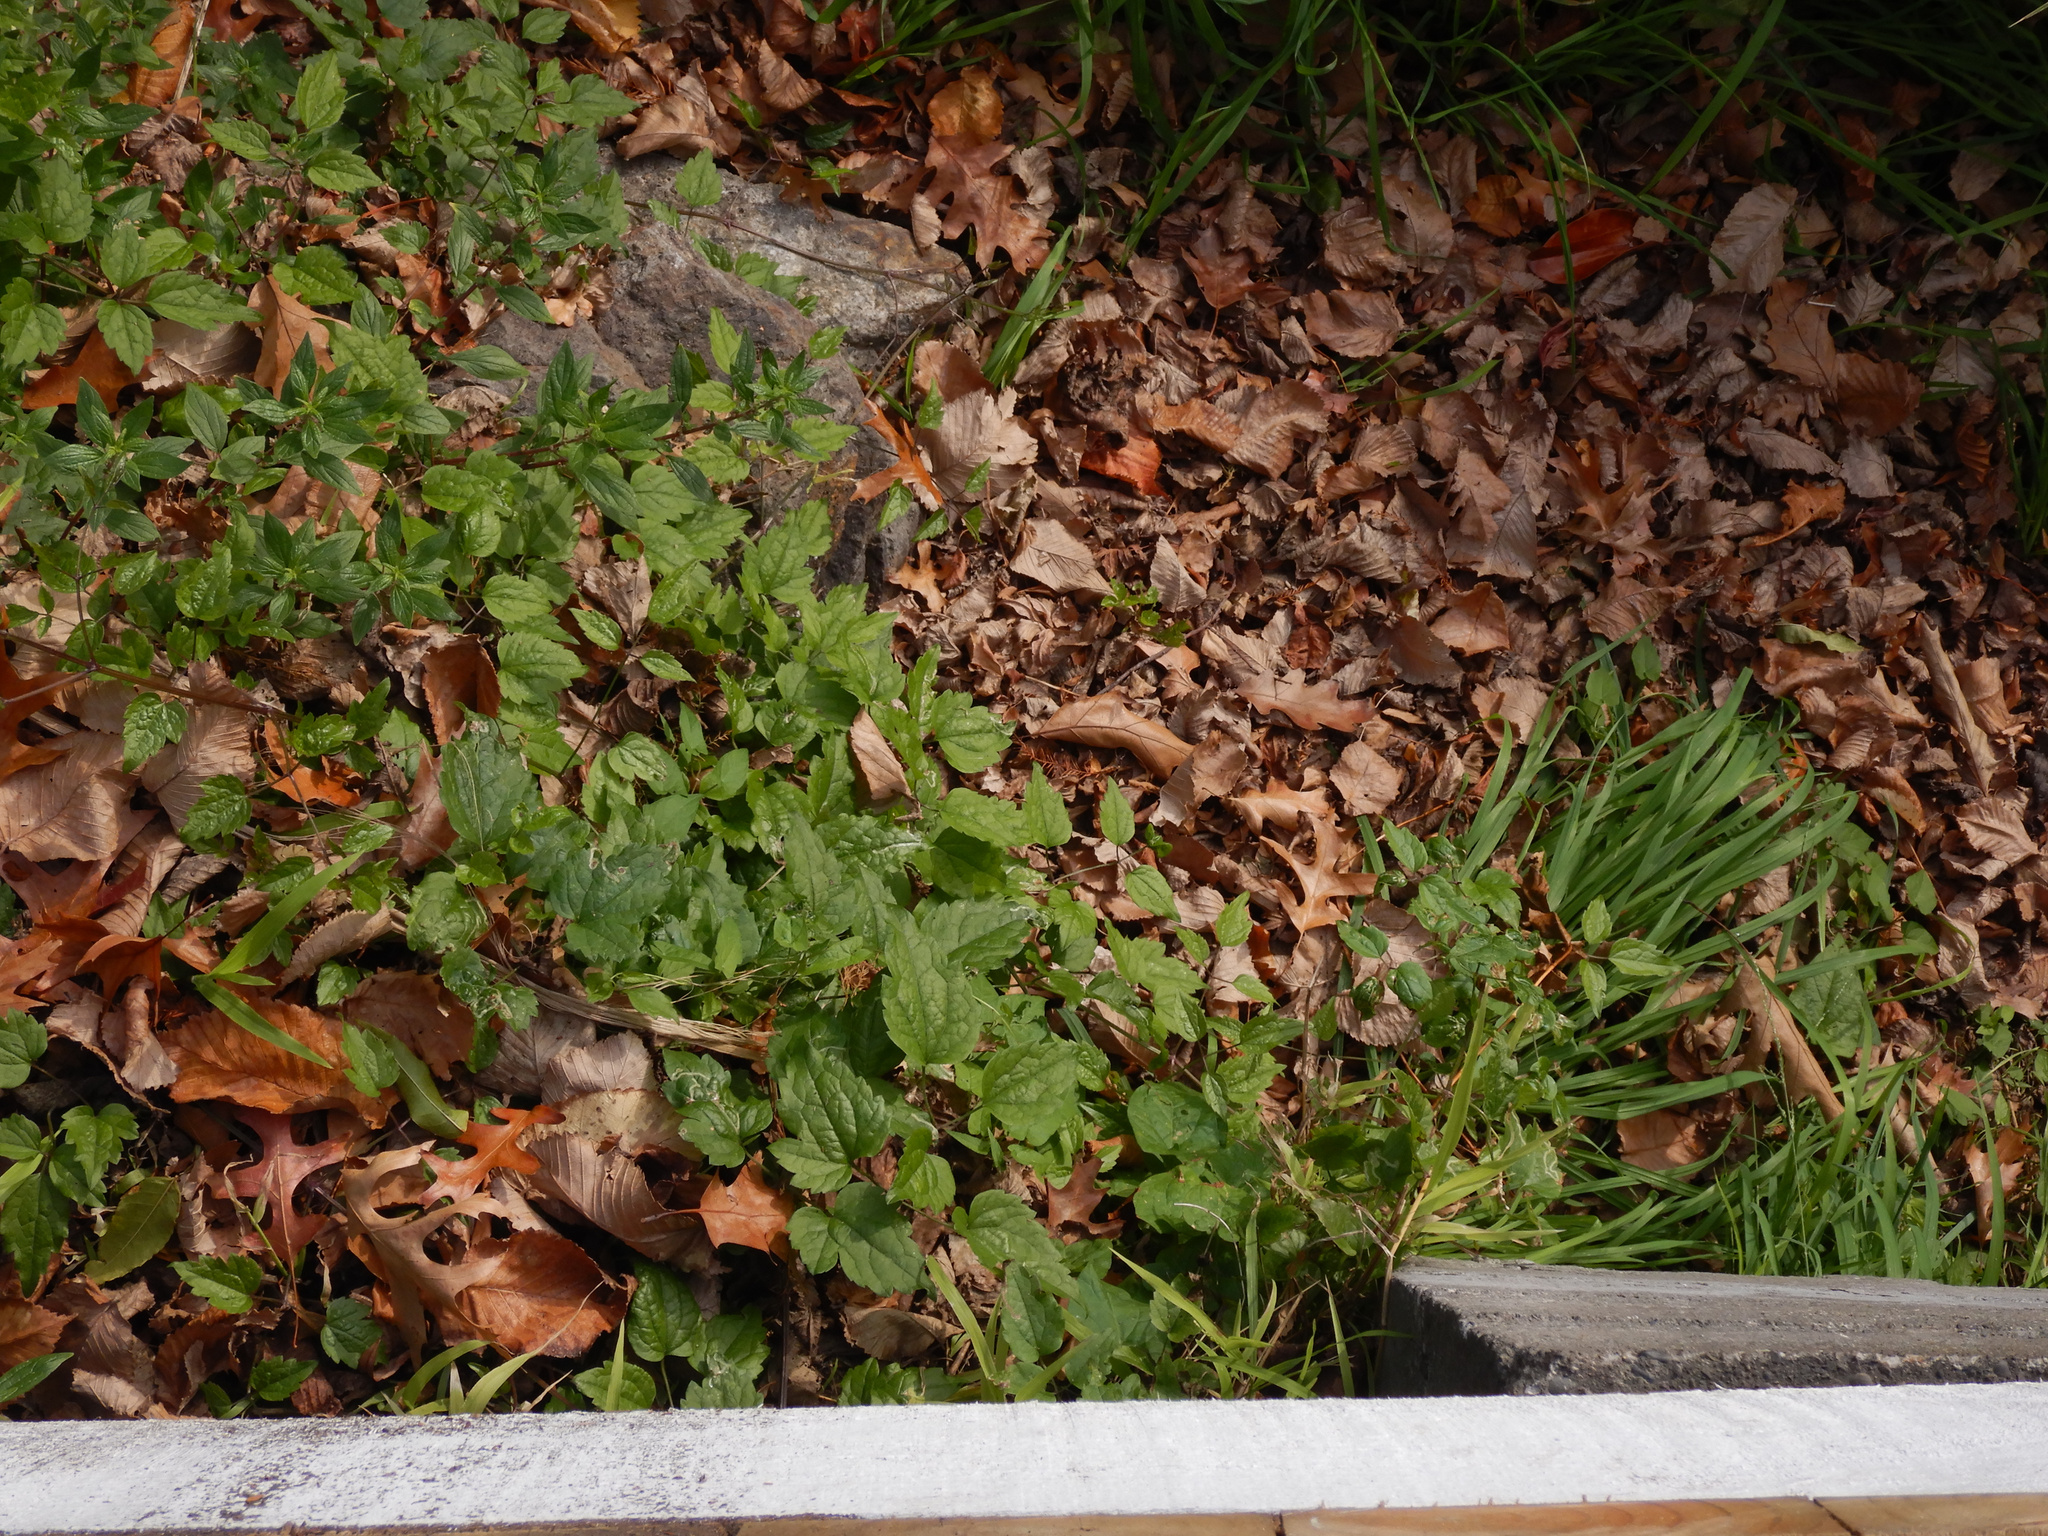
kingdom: Plantae
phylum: Tracheophyta
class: Magnoliopsida
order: Ranunculales
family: Ranunculaceae
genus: Clematis
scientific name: Clematis vitalba
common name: Evergreen clematis
